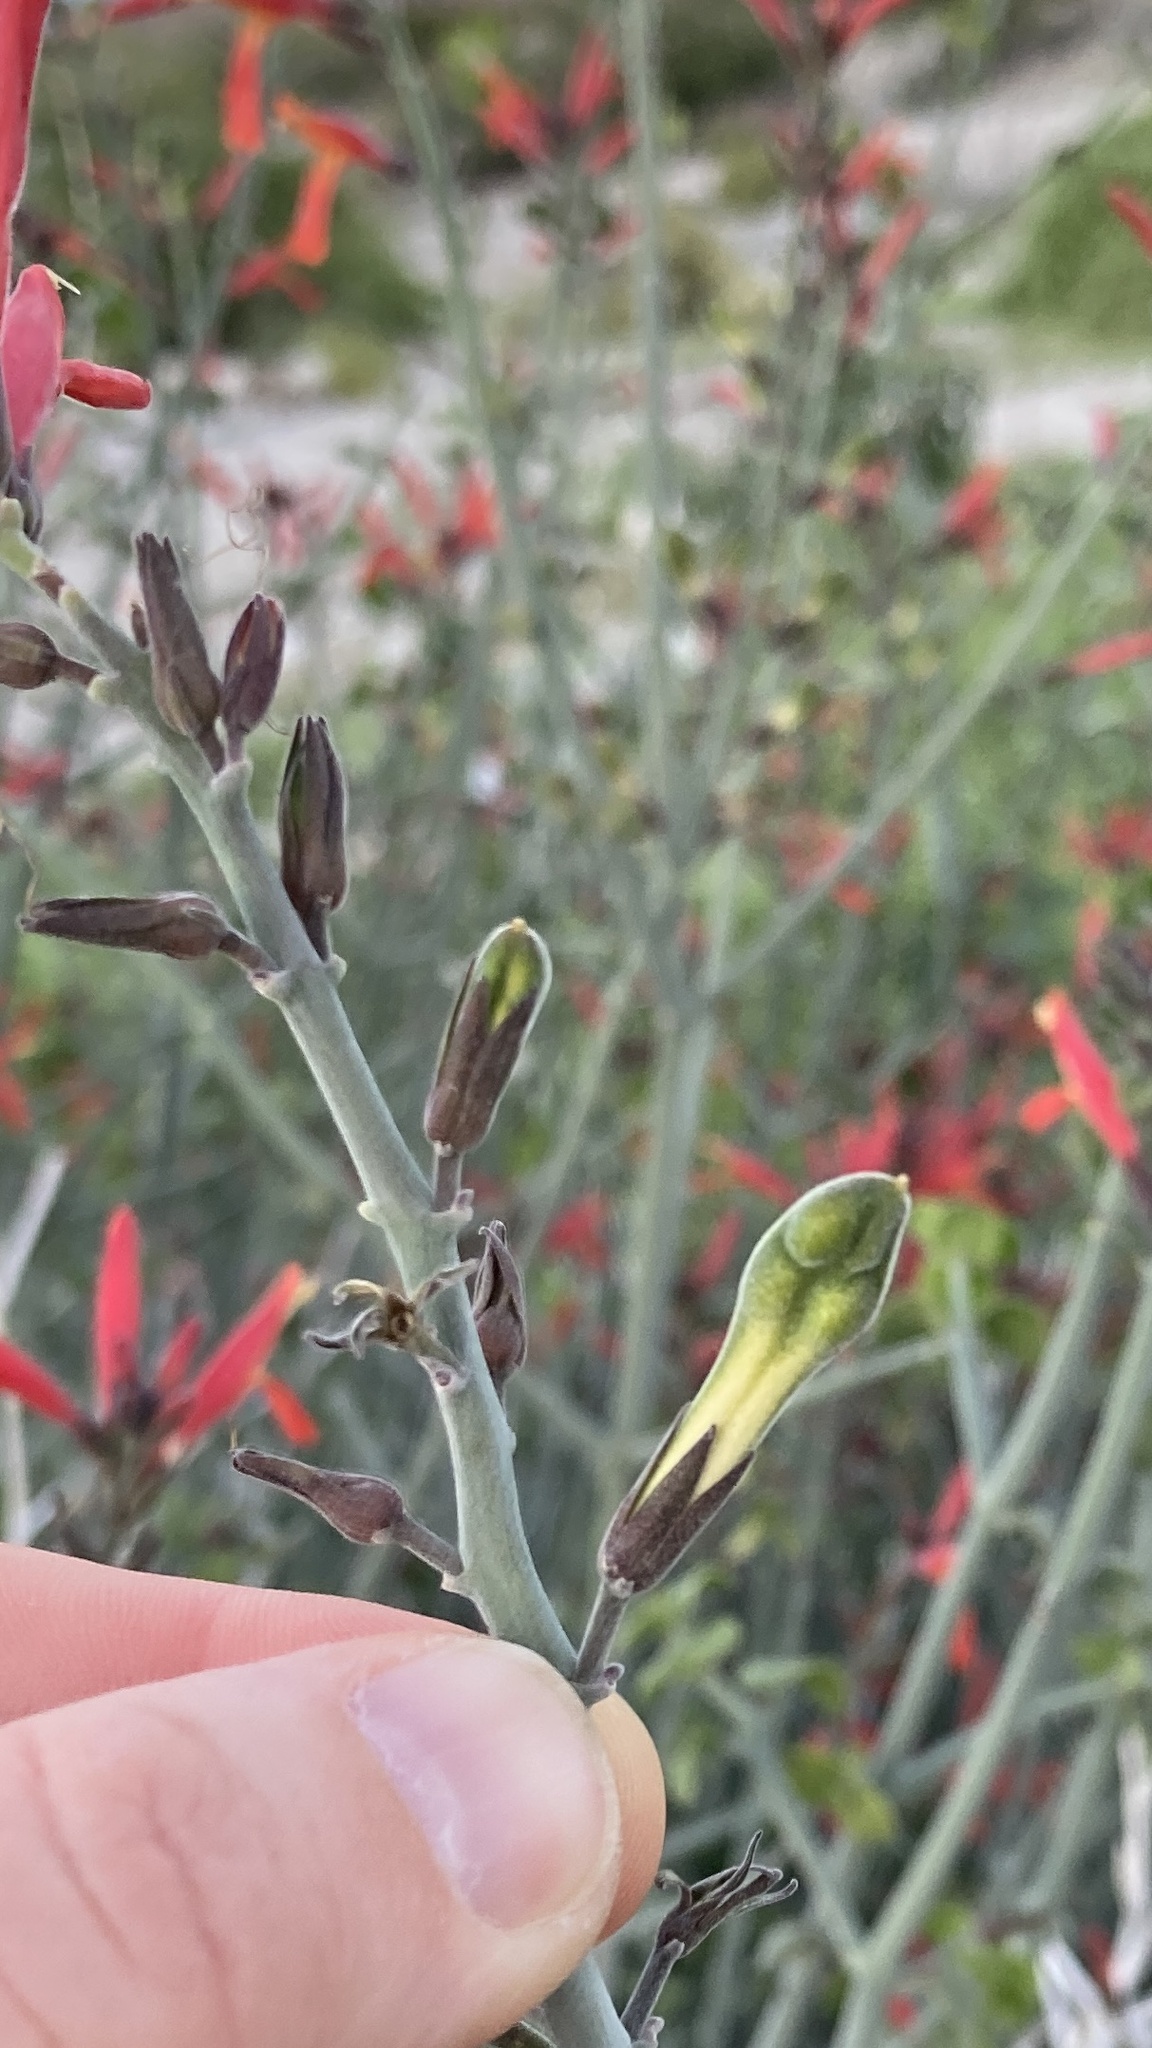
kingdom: Plantae
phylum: Tracheophyta
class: Magnoliopsida
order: Lamiales
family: Acanthaceae
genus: Justicia
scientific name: Justicia californica
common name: Chuparosa-honeysuckle
